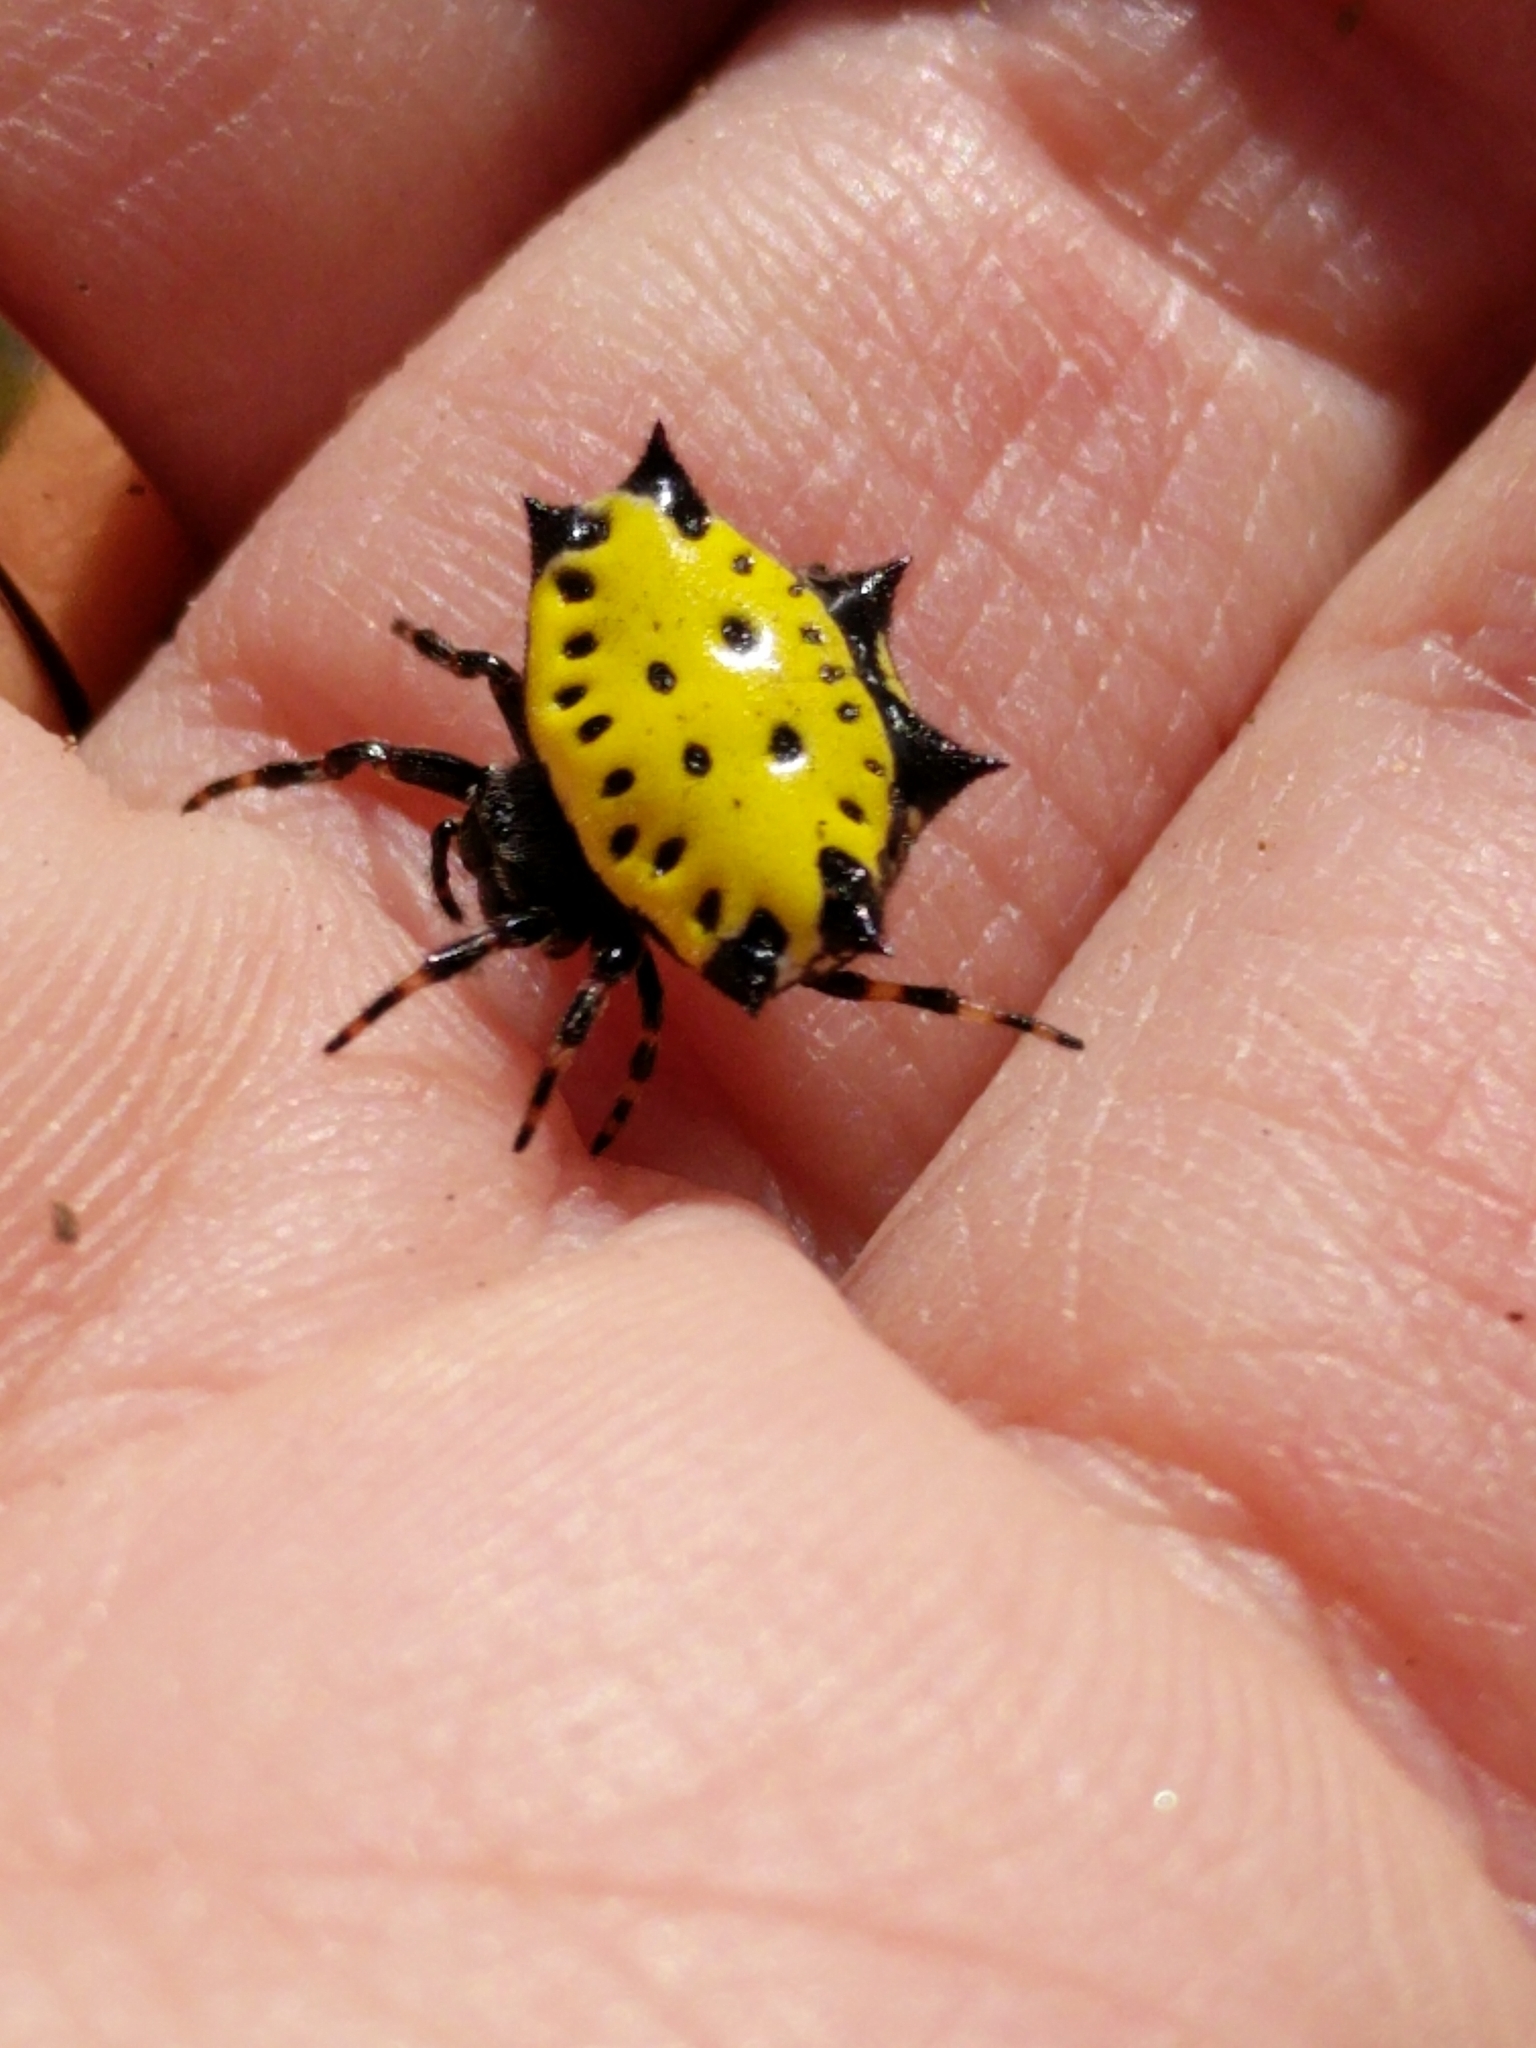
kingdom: Animalia
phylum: Arthropoda
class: Arachnida
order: Araneae
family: Araneidae
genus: Gasteracantha
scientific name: Gasteracantha cancriformis
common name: Orb weavers
